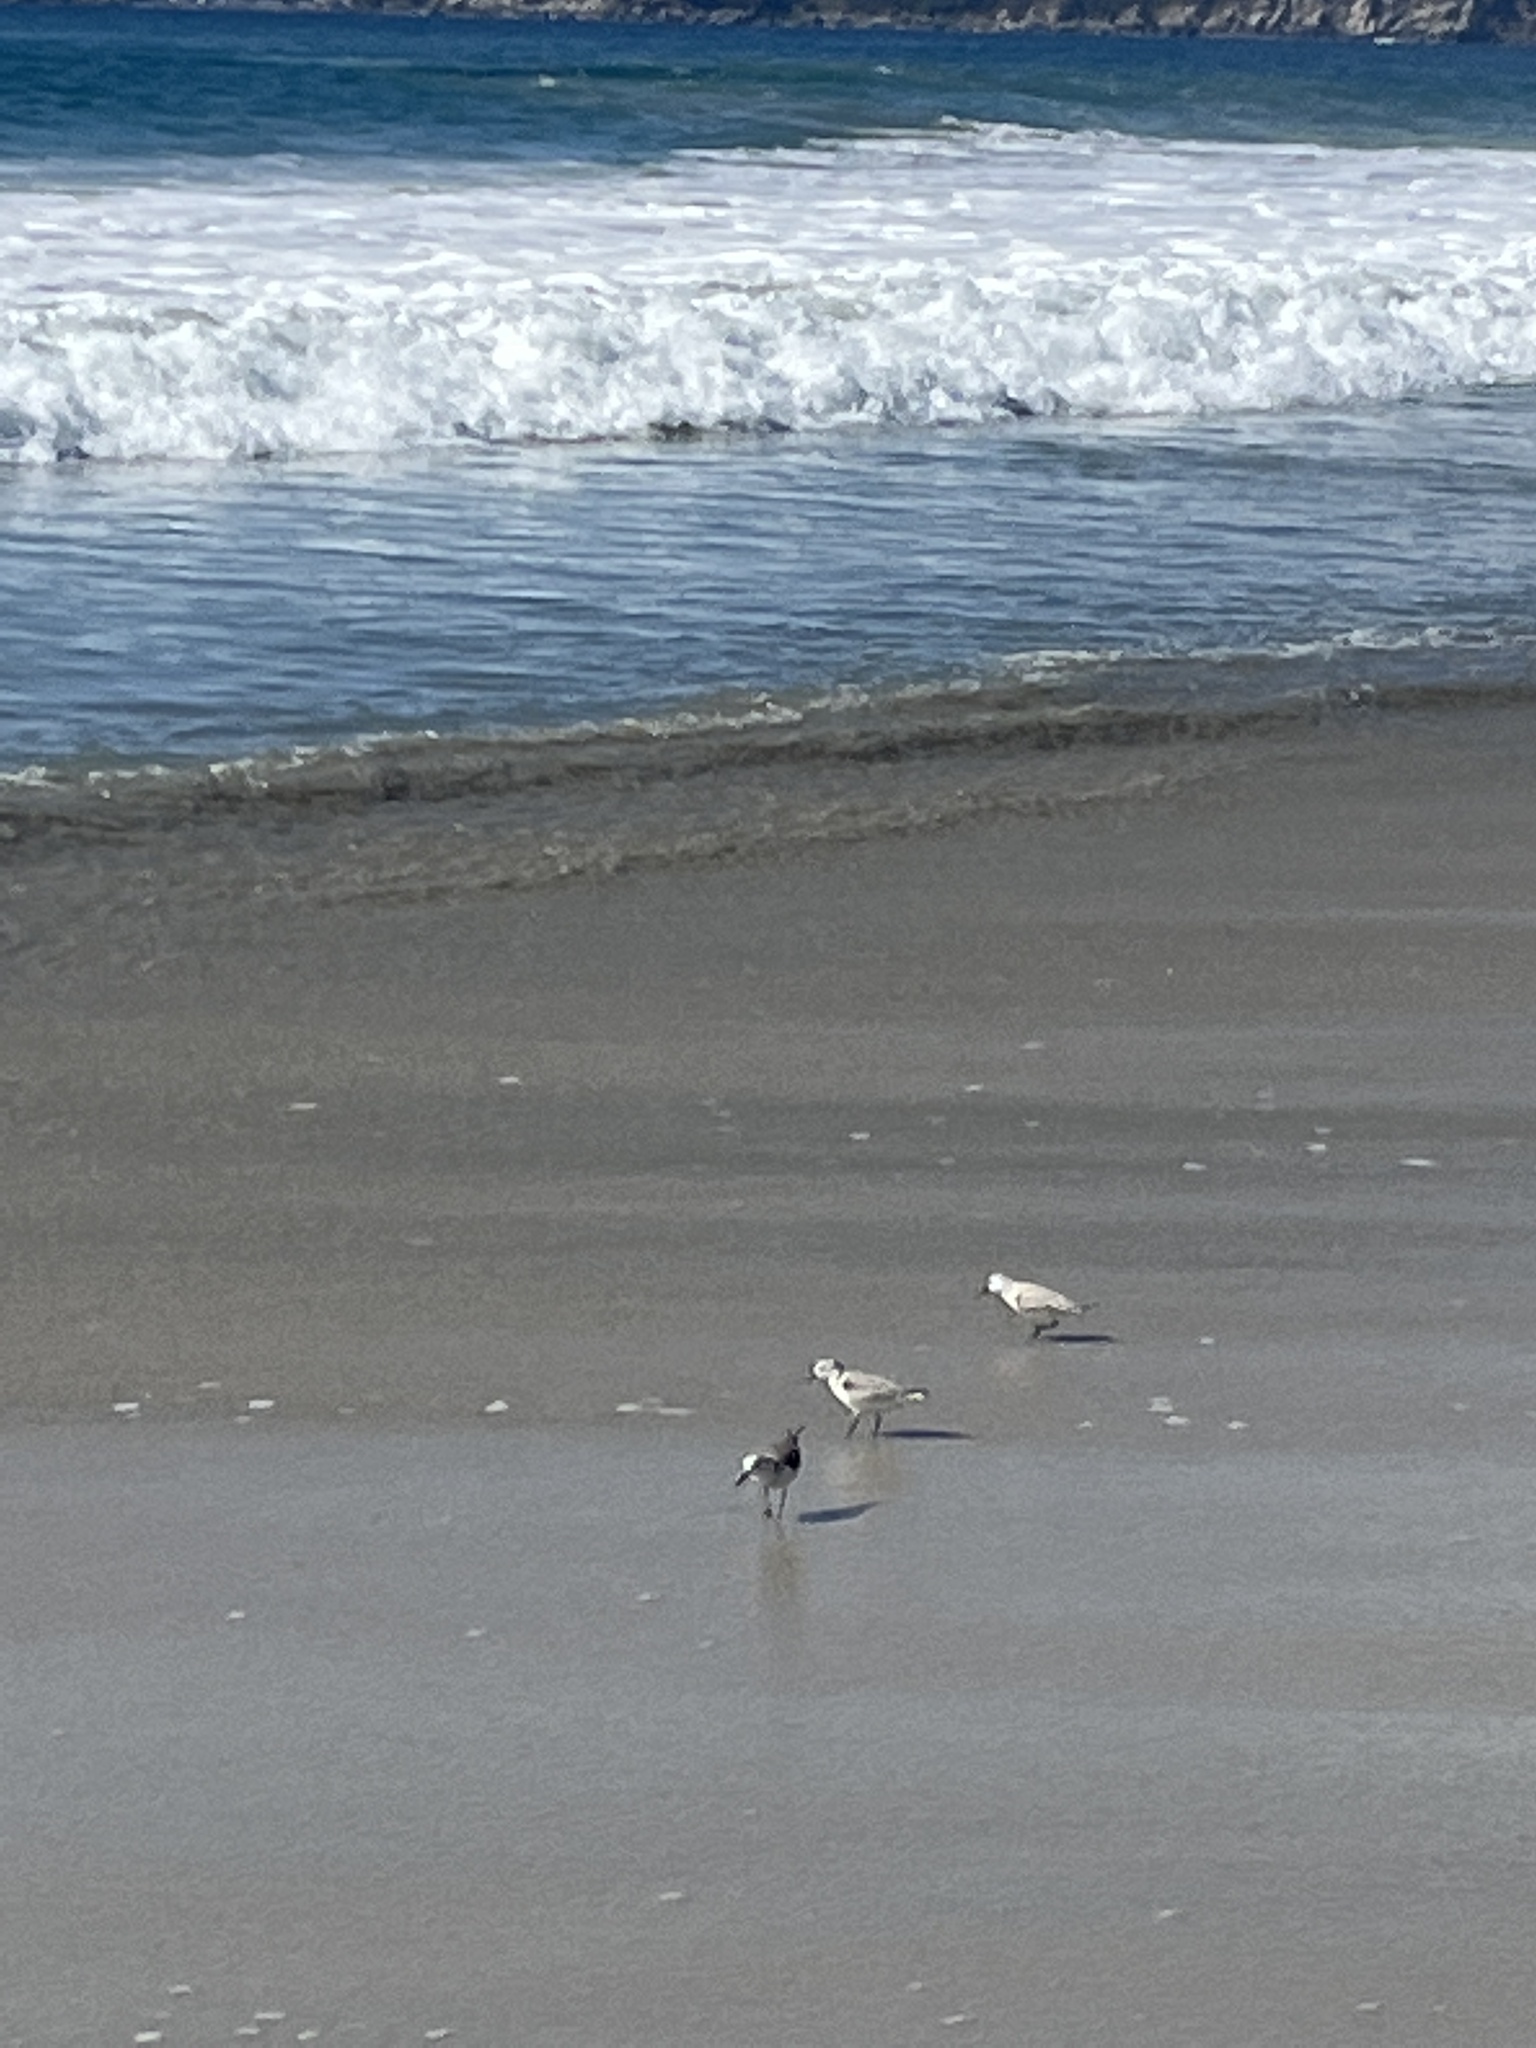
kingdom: Animalia
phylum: Chordata
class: Aves
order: Charadriiformes
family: Scolopacidae
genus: Calidris
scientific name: Calidris alba
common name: Sanderling
